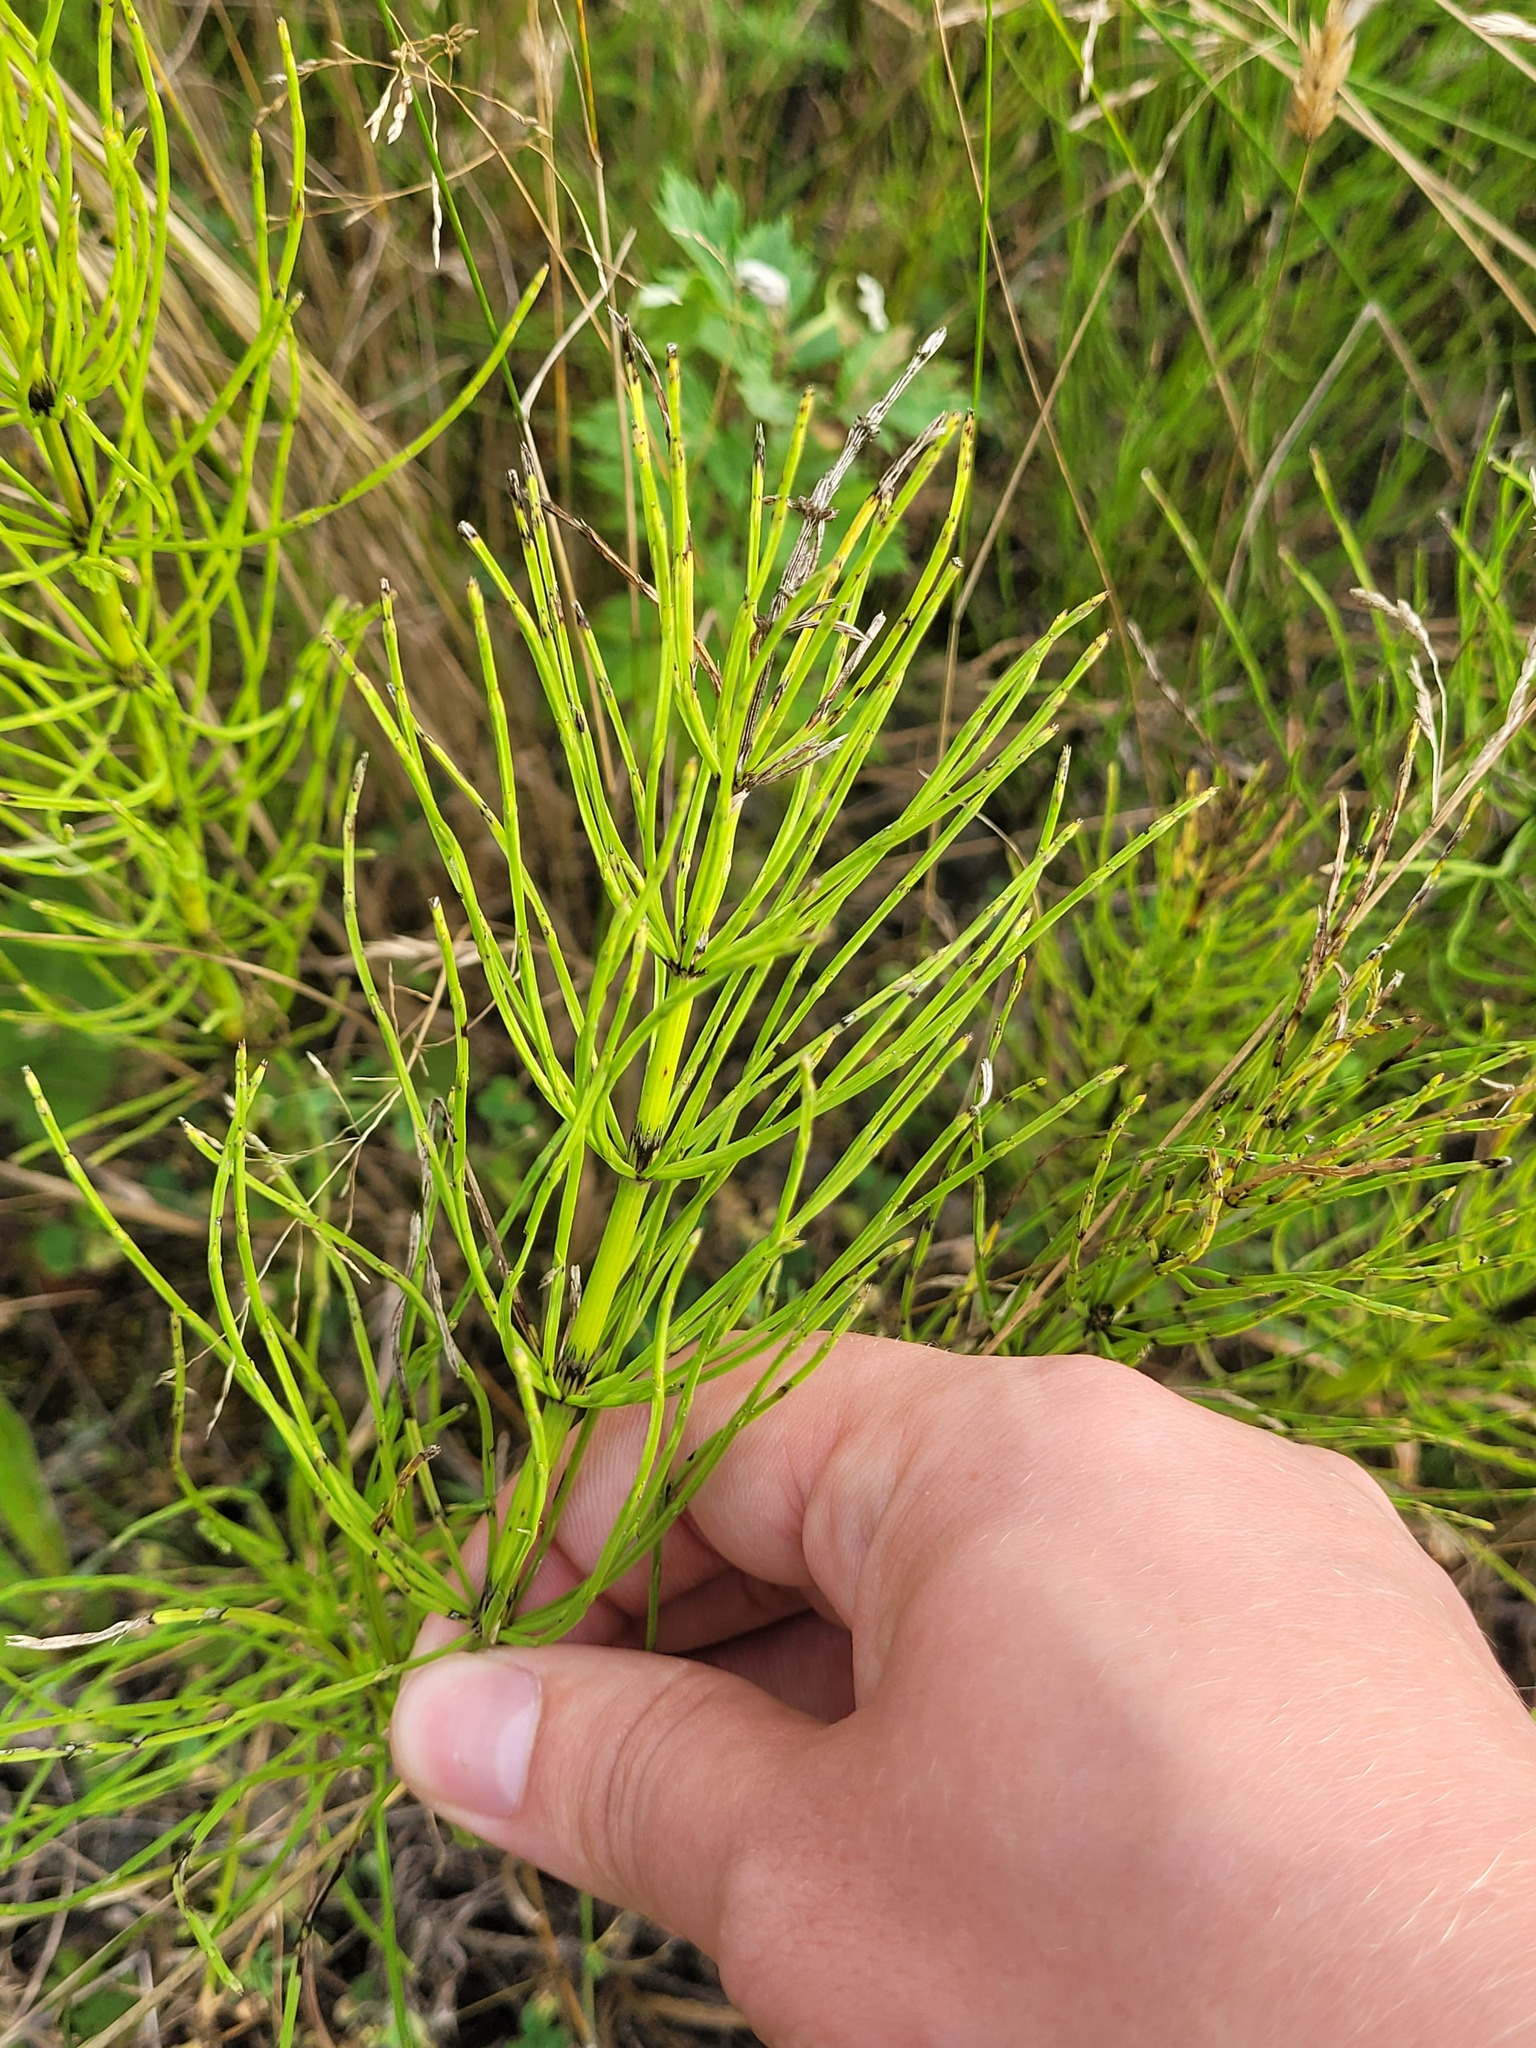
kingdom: Plantae
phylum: Tracheophyta
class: Polypodiopsida
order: Equisetales
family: Equisetaceae
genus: Equisetum
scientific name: Equisetum arvense
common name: Field horsetail
